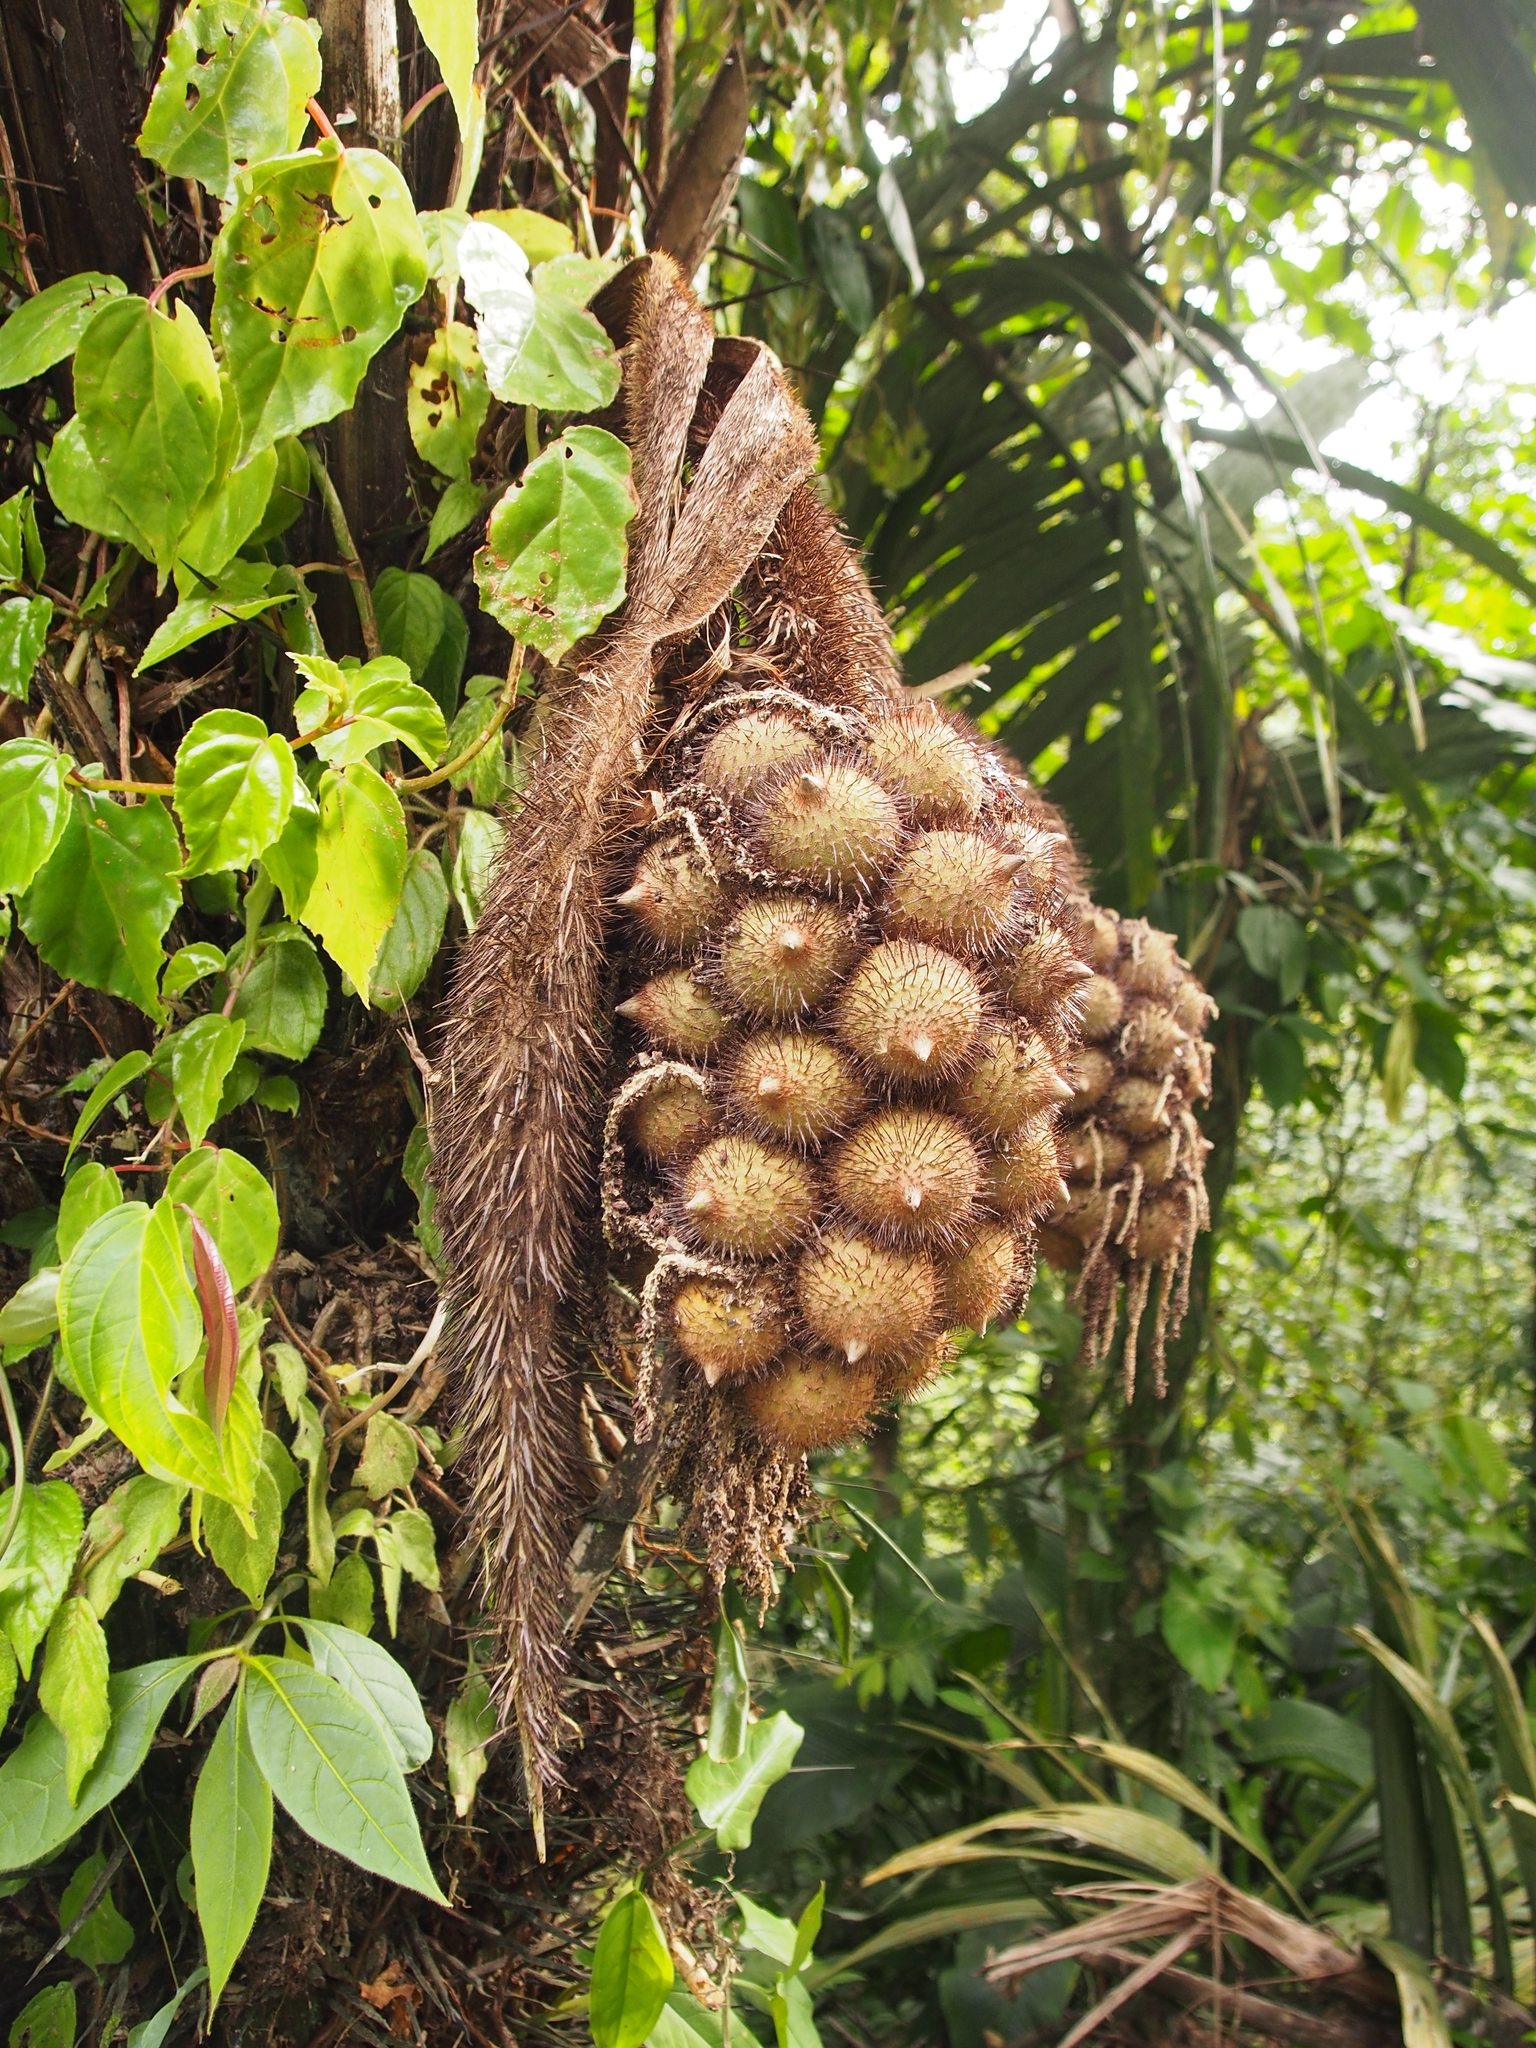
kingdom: Plantae
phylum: Tracheophyta
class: Liliopsida
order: Arecales
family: Arecaceae
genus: Astrocaryum
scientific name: Astrocaryum alatum
